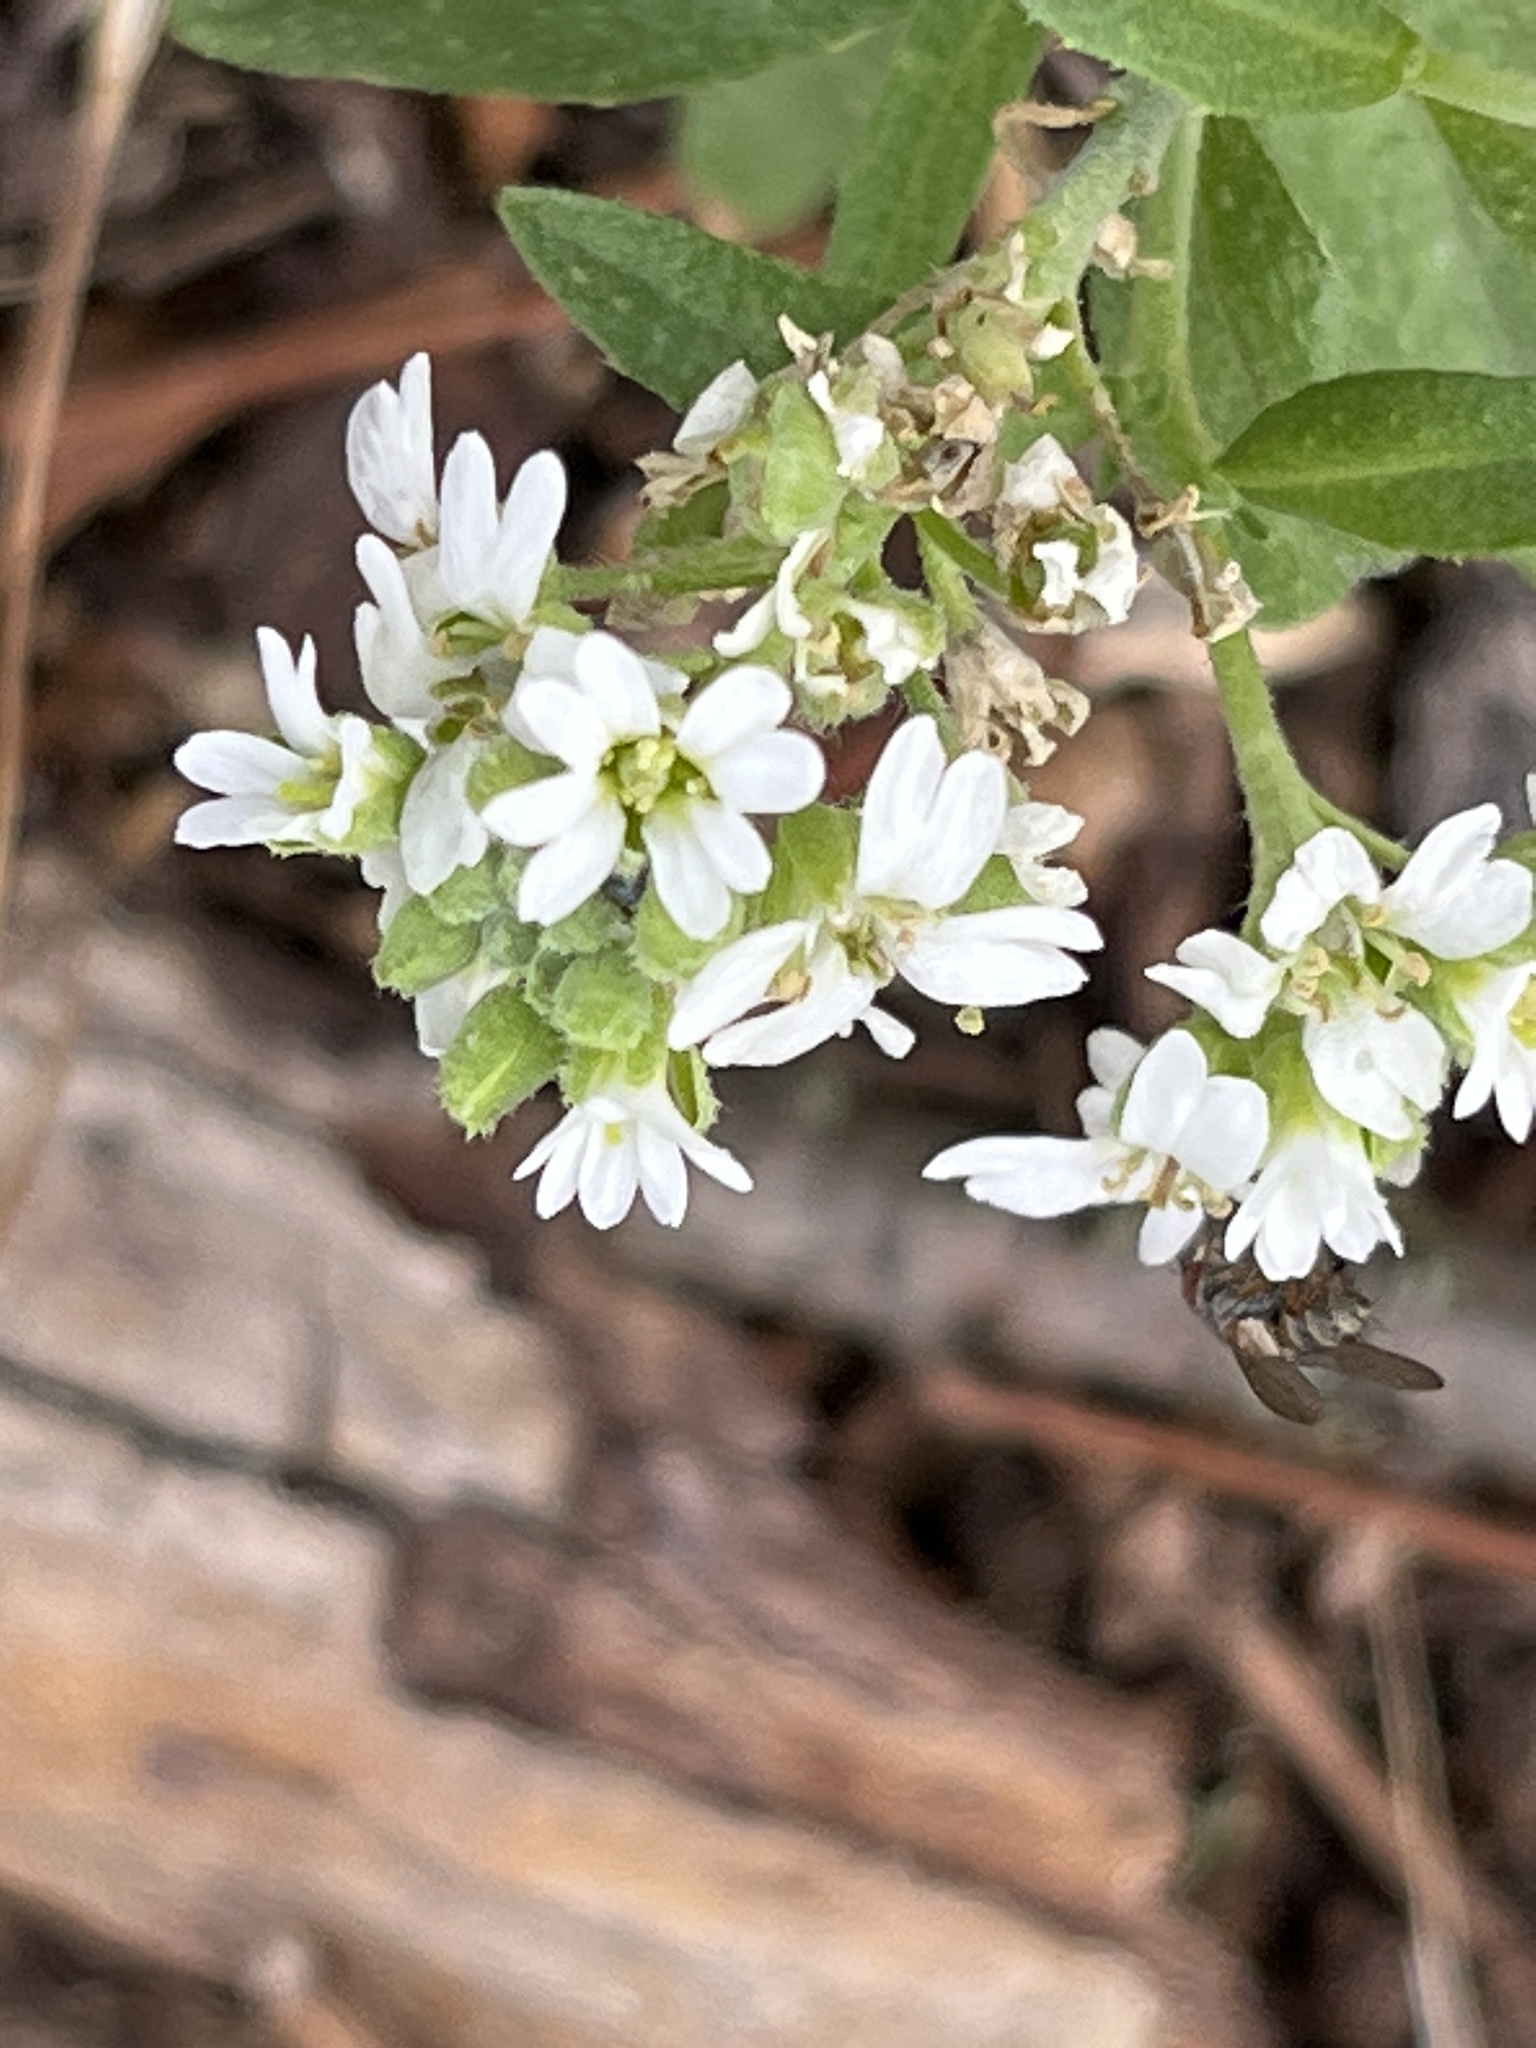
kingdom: Plantae
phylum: Tracheophyta
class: Magnoliopsida
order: Brassicales
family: Brassicaceae
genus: Berteroa
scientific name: Berteroa incana
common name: Hoary alison
